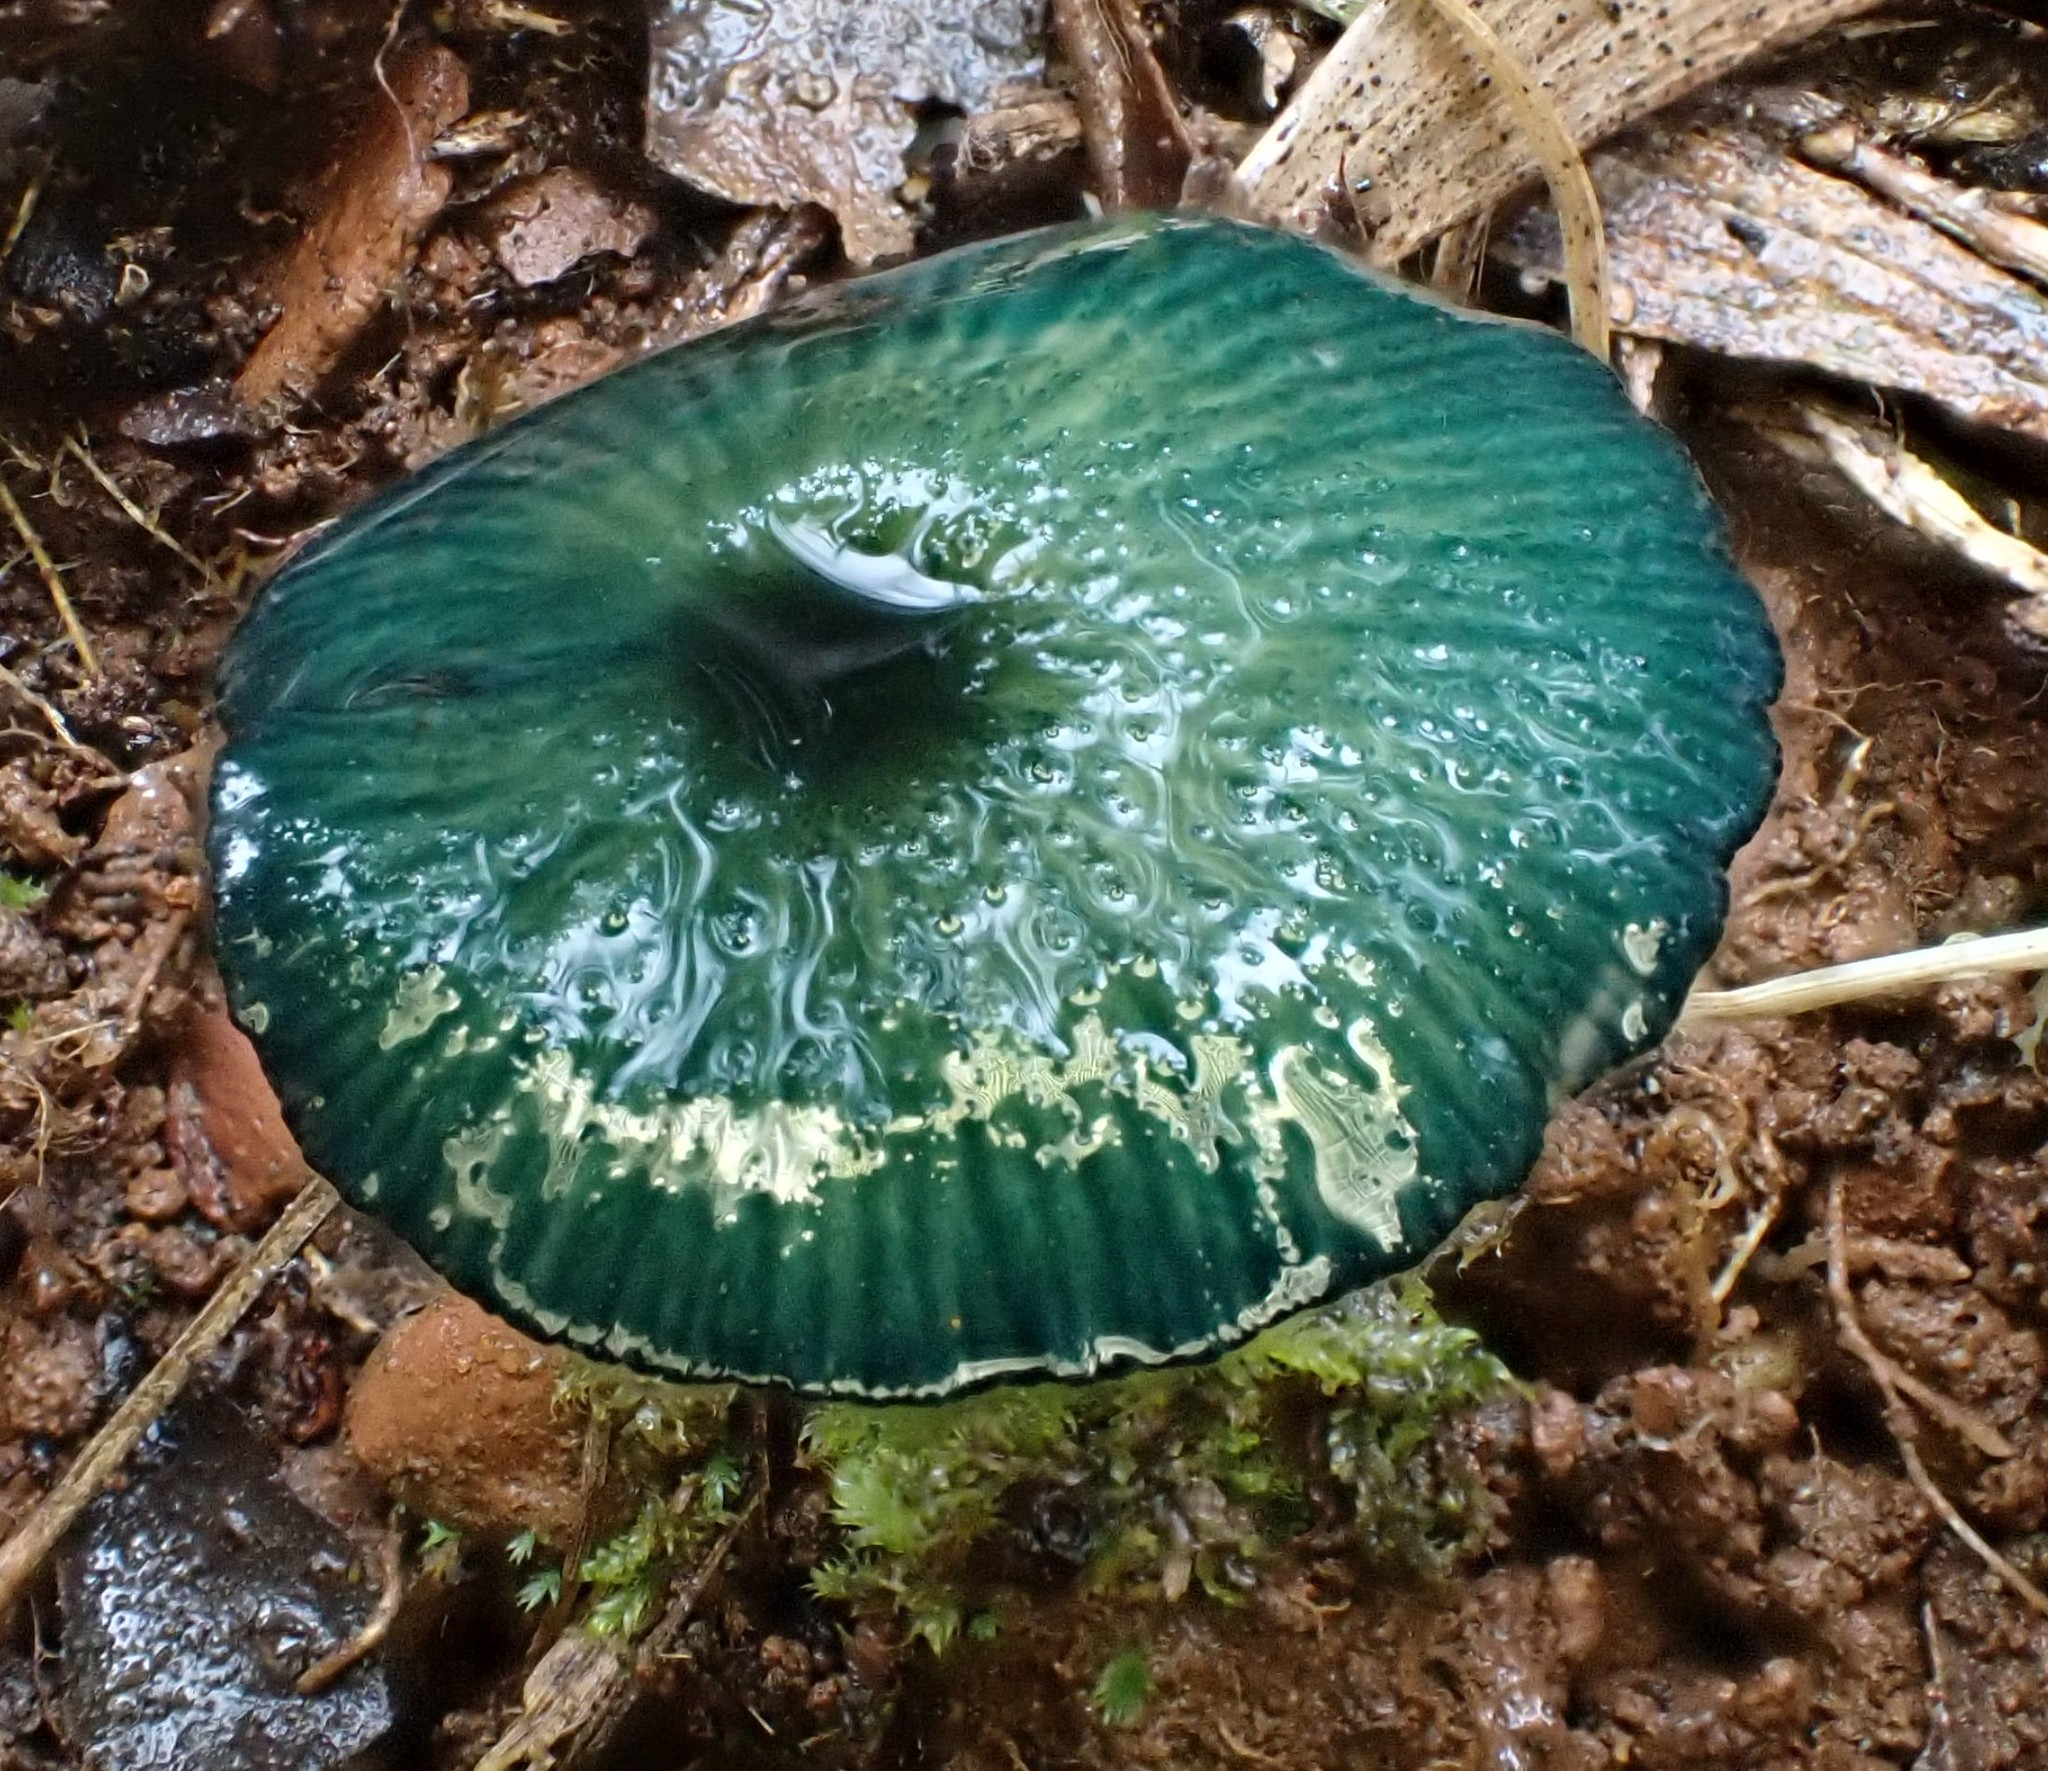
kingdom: Fungi
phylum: Basidiomycota
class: Agaricomycetes
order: Agaricales
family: Entolomataceae
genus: Entoloma
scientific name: Entoloma viridomarginatum
